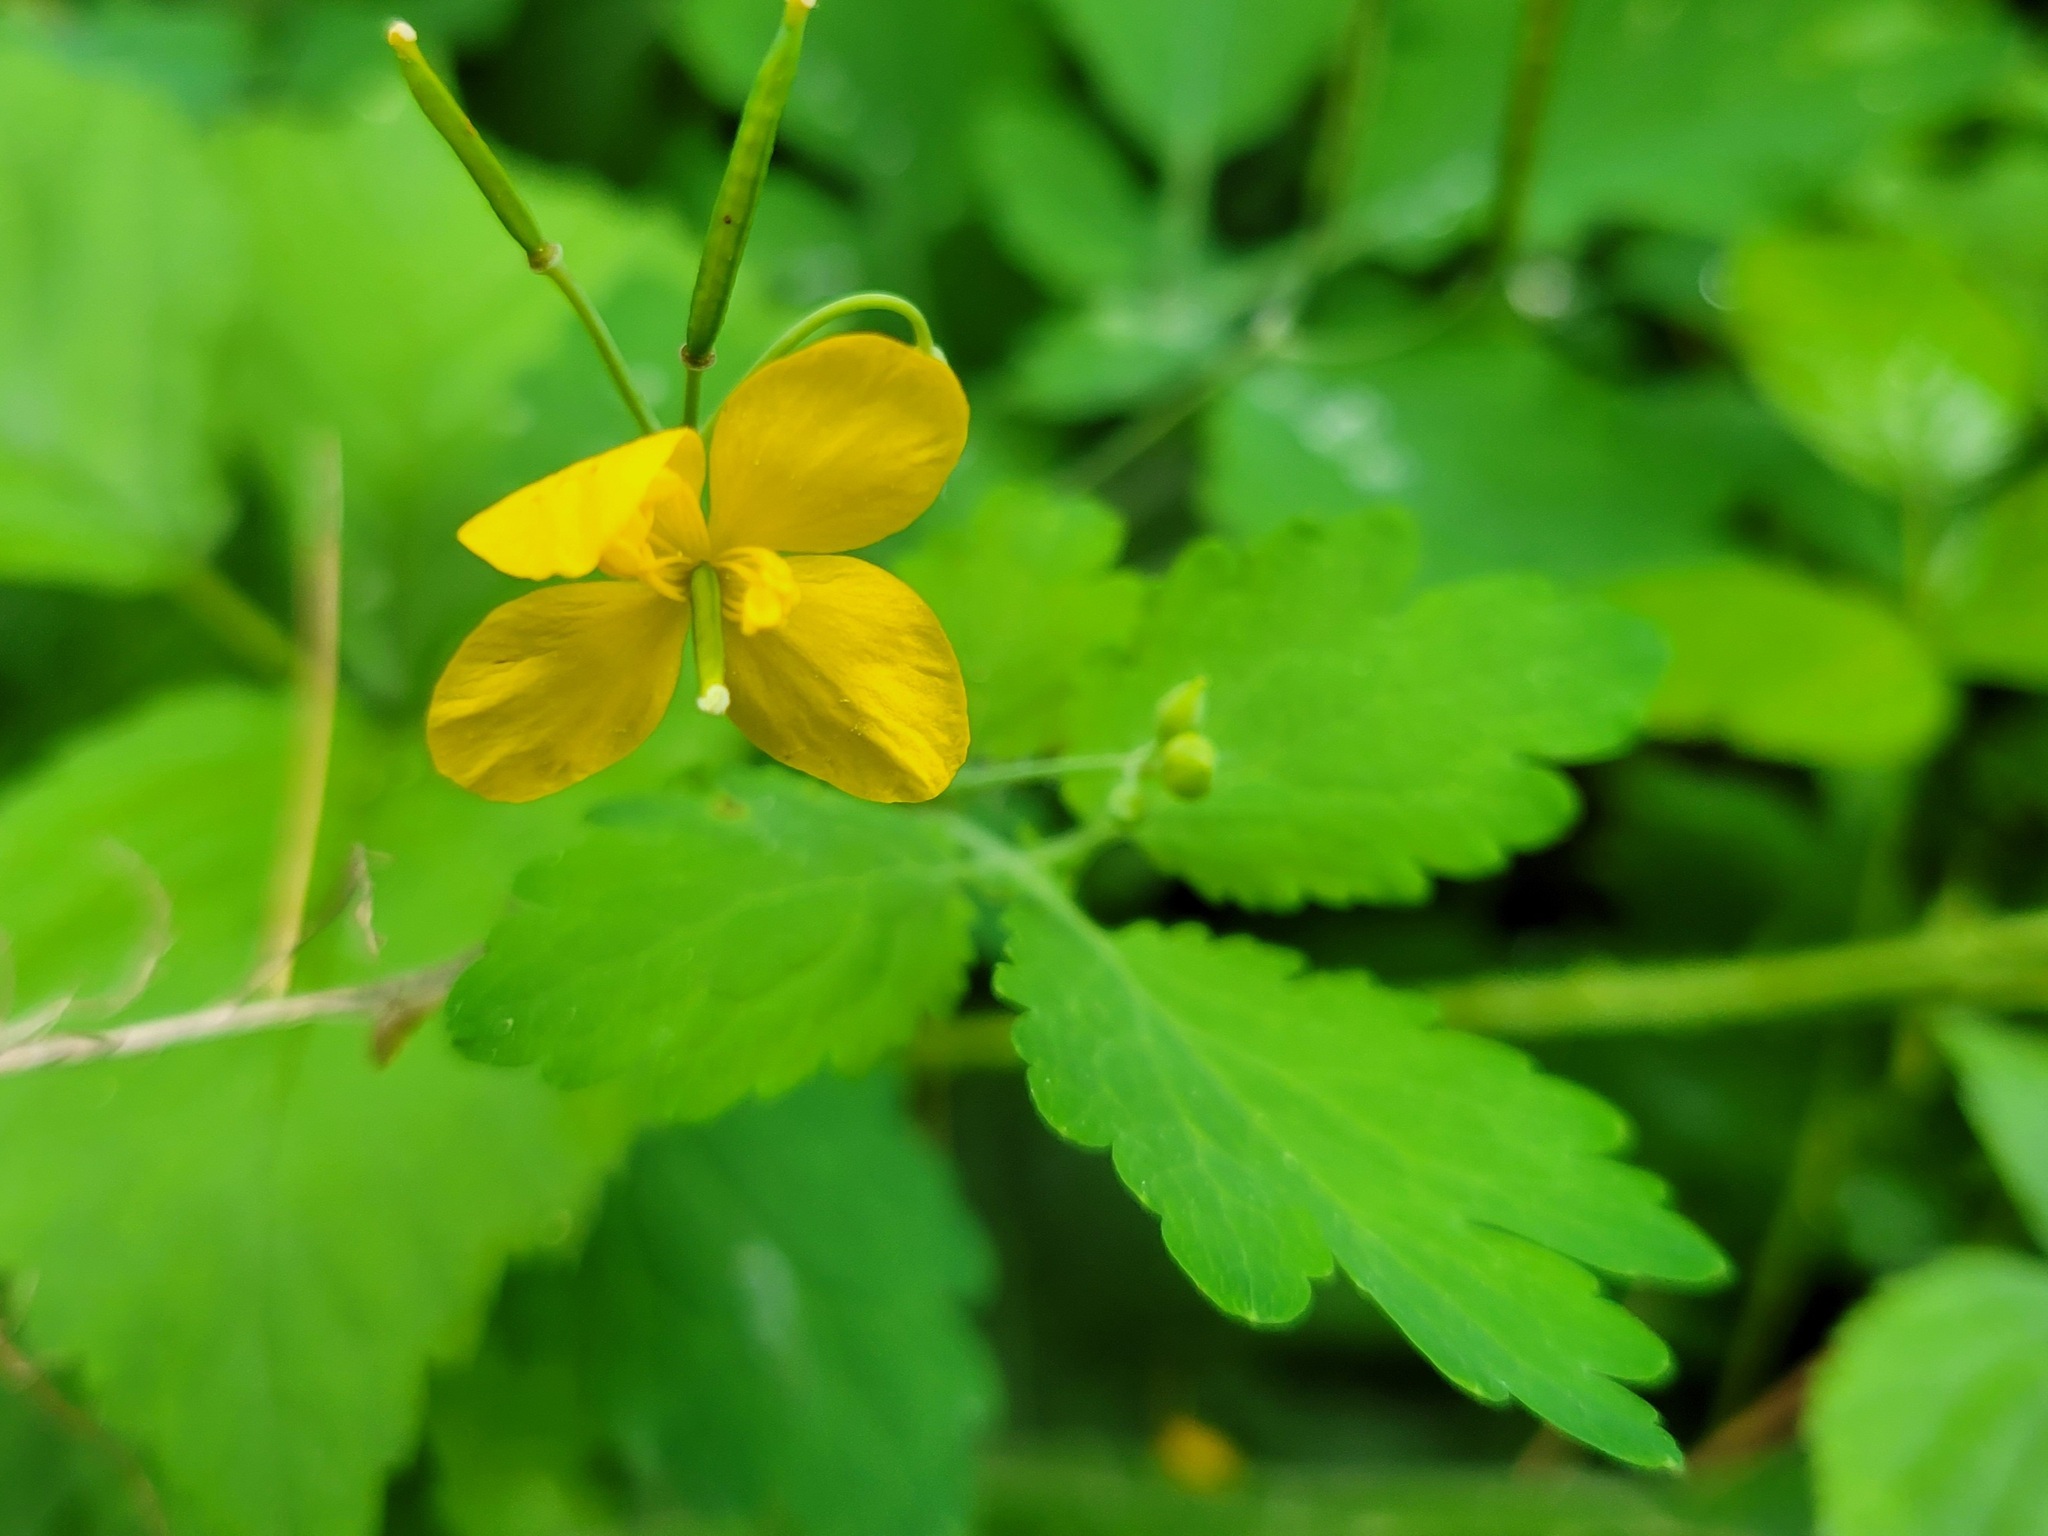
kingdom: Plantae
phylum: Tracheophyta
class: Magnoliopsida
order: Ranunculales
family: Papaveraceae
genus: Chelidonium
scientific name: Chelidonium majus
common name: Greater celandine
